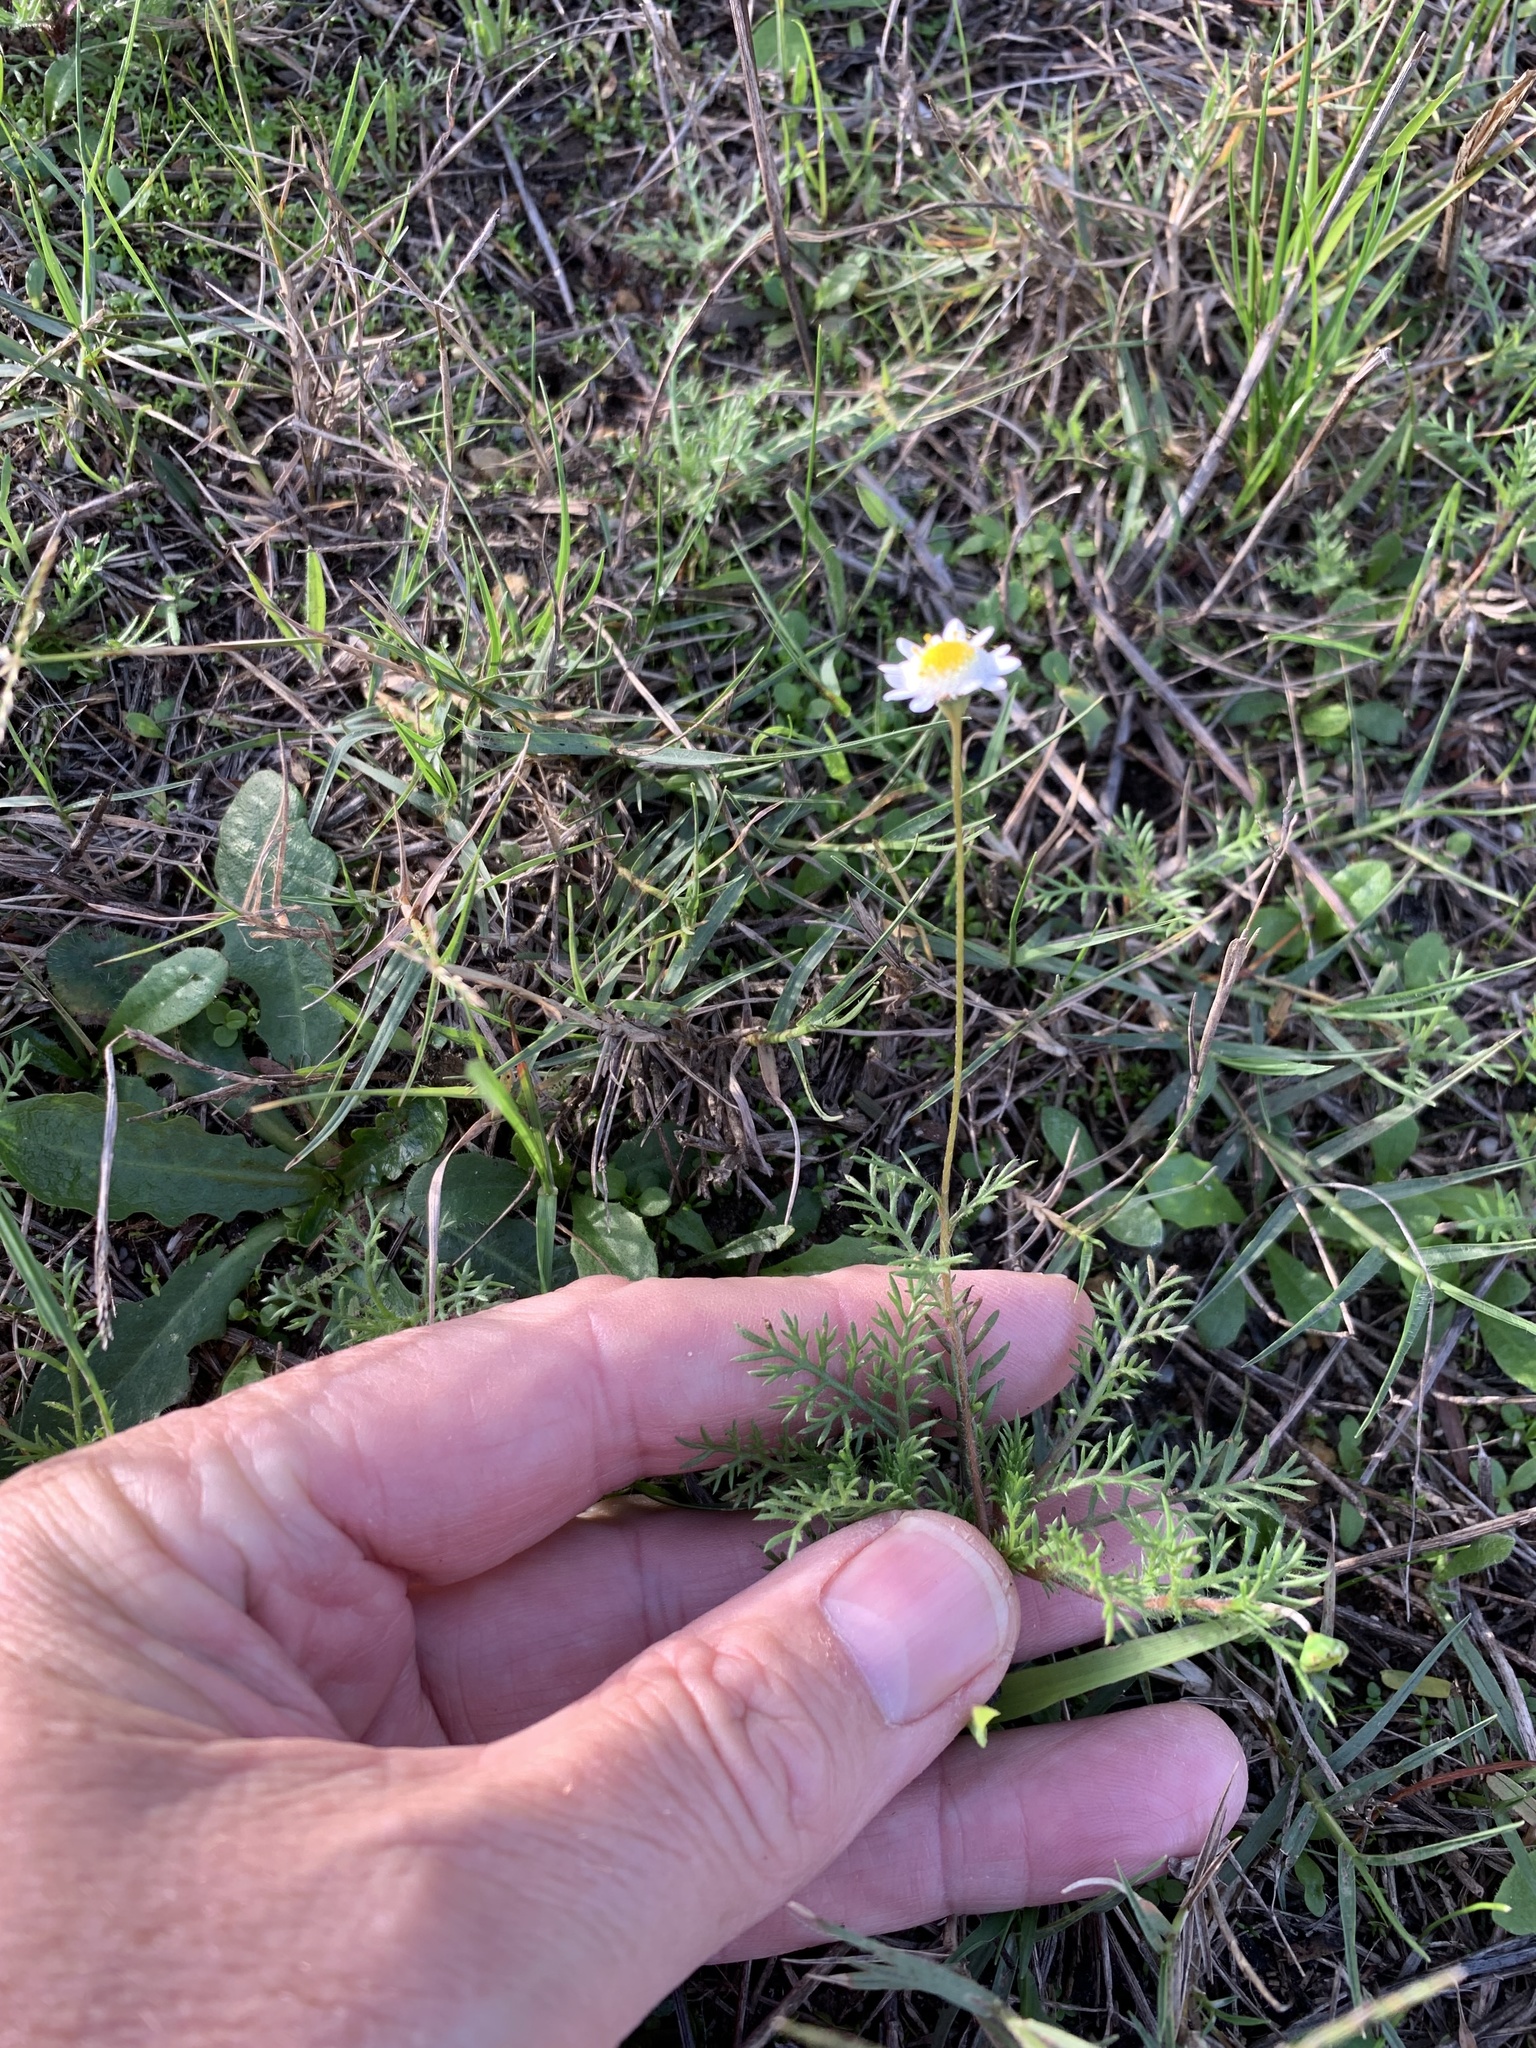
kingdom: Plantae
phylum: Tracheophyta
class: Magnoliopsida
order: Asterales
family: Asteraceae
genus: Cotula
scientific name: Cotula turbinata
